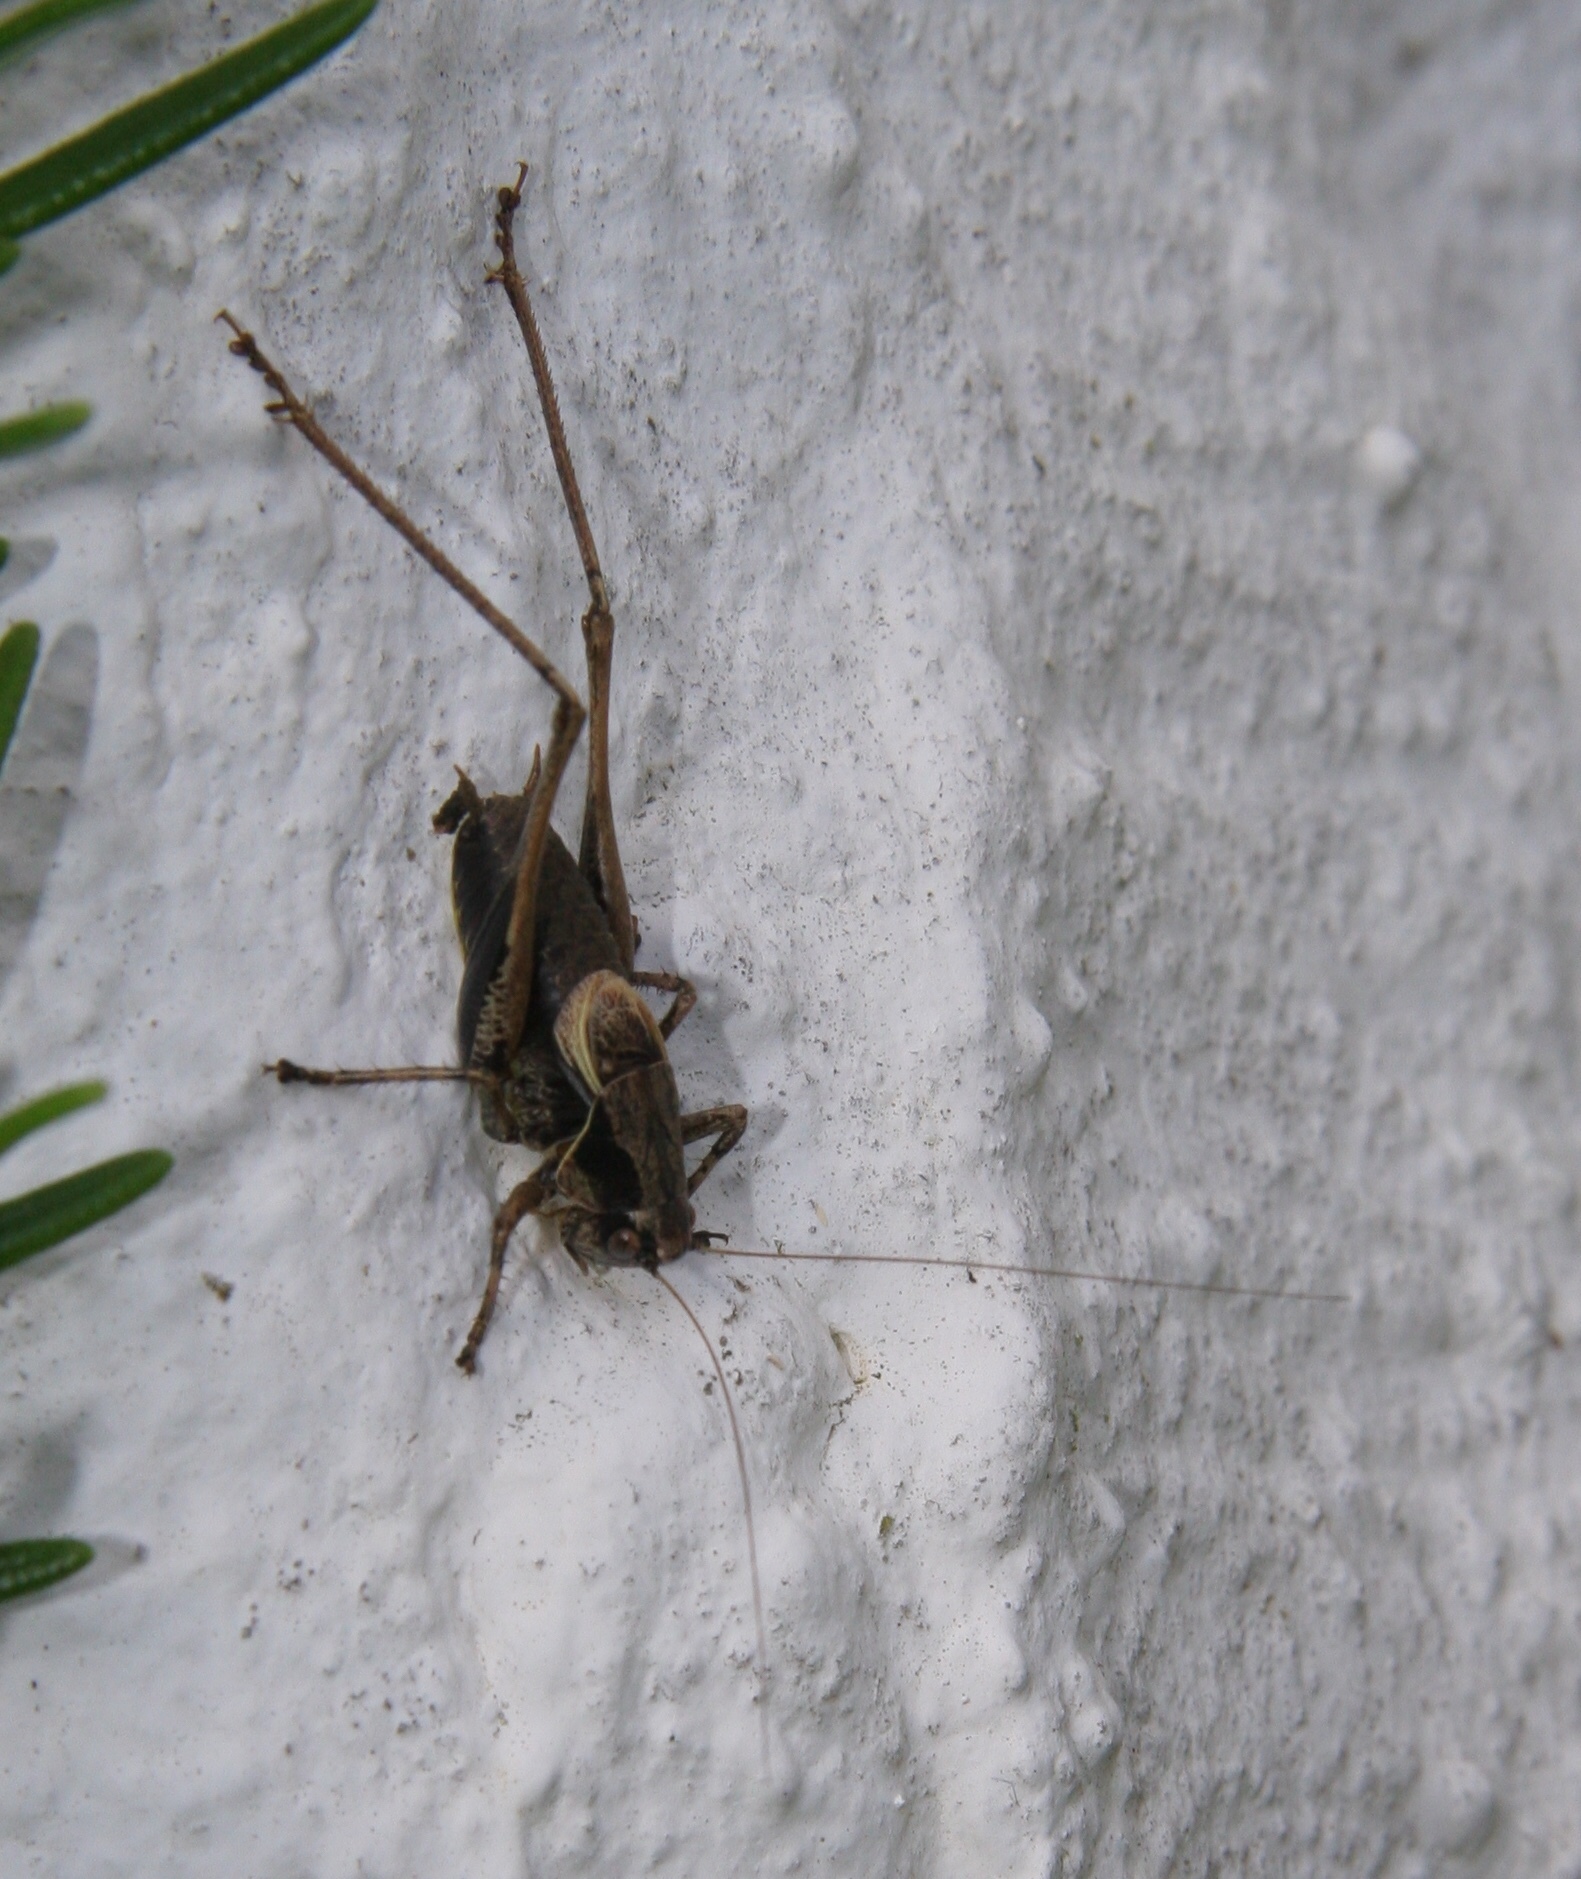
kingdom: Animalia
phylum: Arthropoda
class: Insecta
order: Orthoptera
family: Tettigoniidae
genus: Pholidoptera
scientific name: Pholidoptera griseoaptera
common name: Dark bush-cricket
